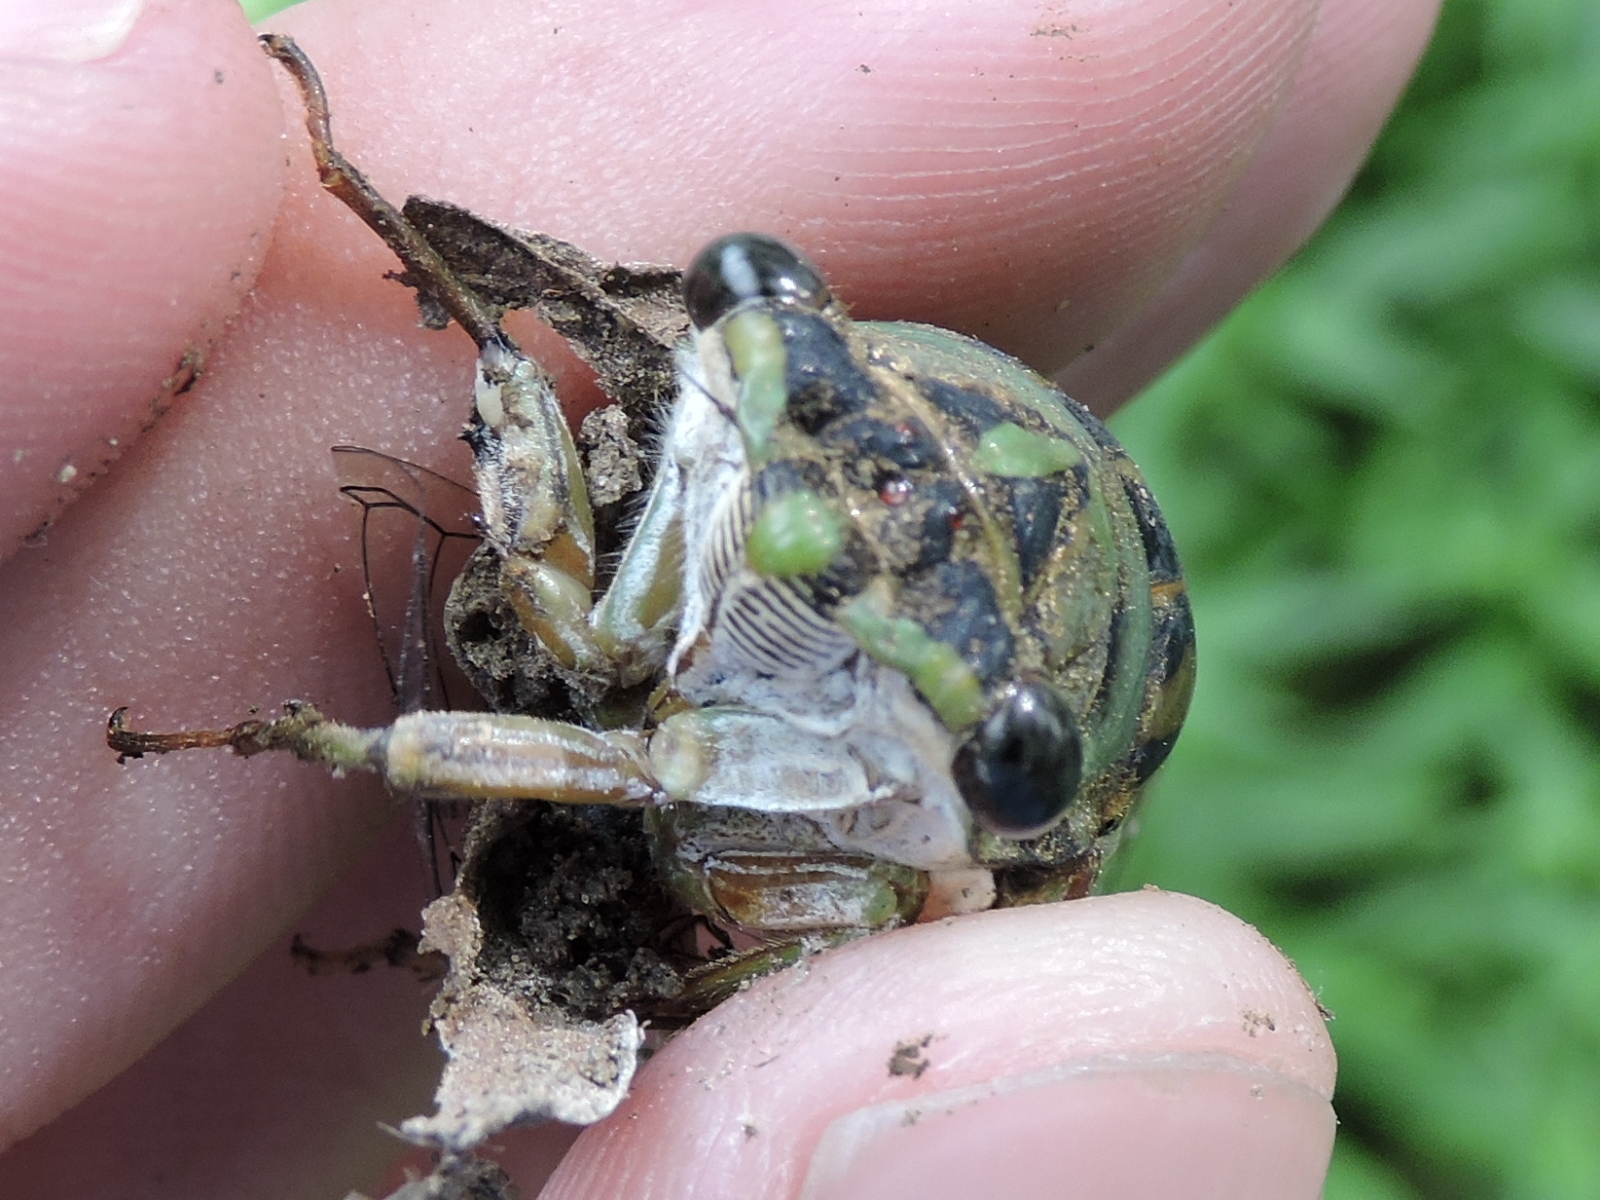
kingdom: Animalia
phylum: Arthropoda
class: Insecta
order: Hemiptera
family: Cicadidae
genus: Neotibicen
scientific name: Neotibicen pruinosus
